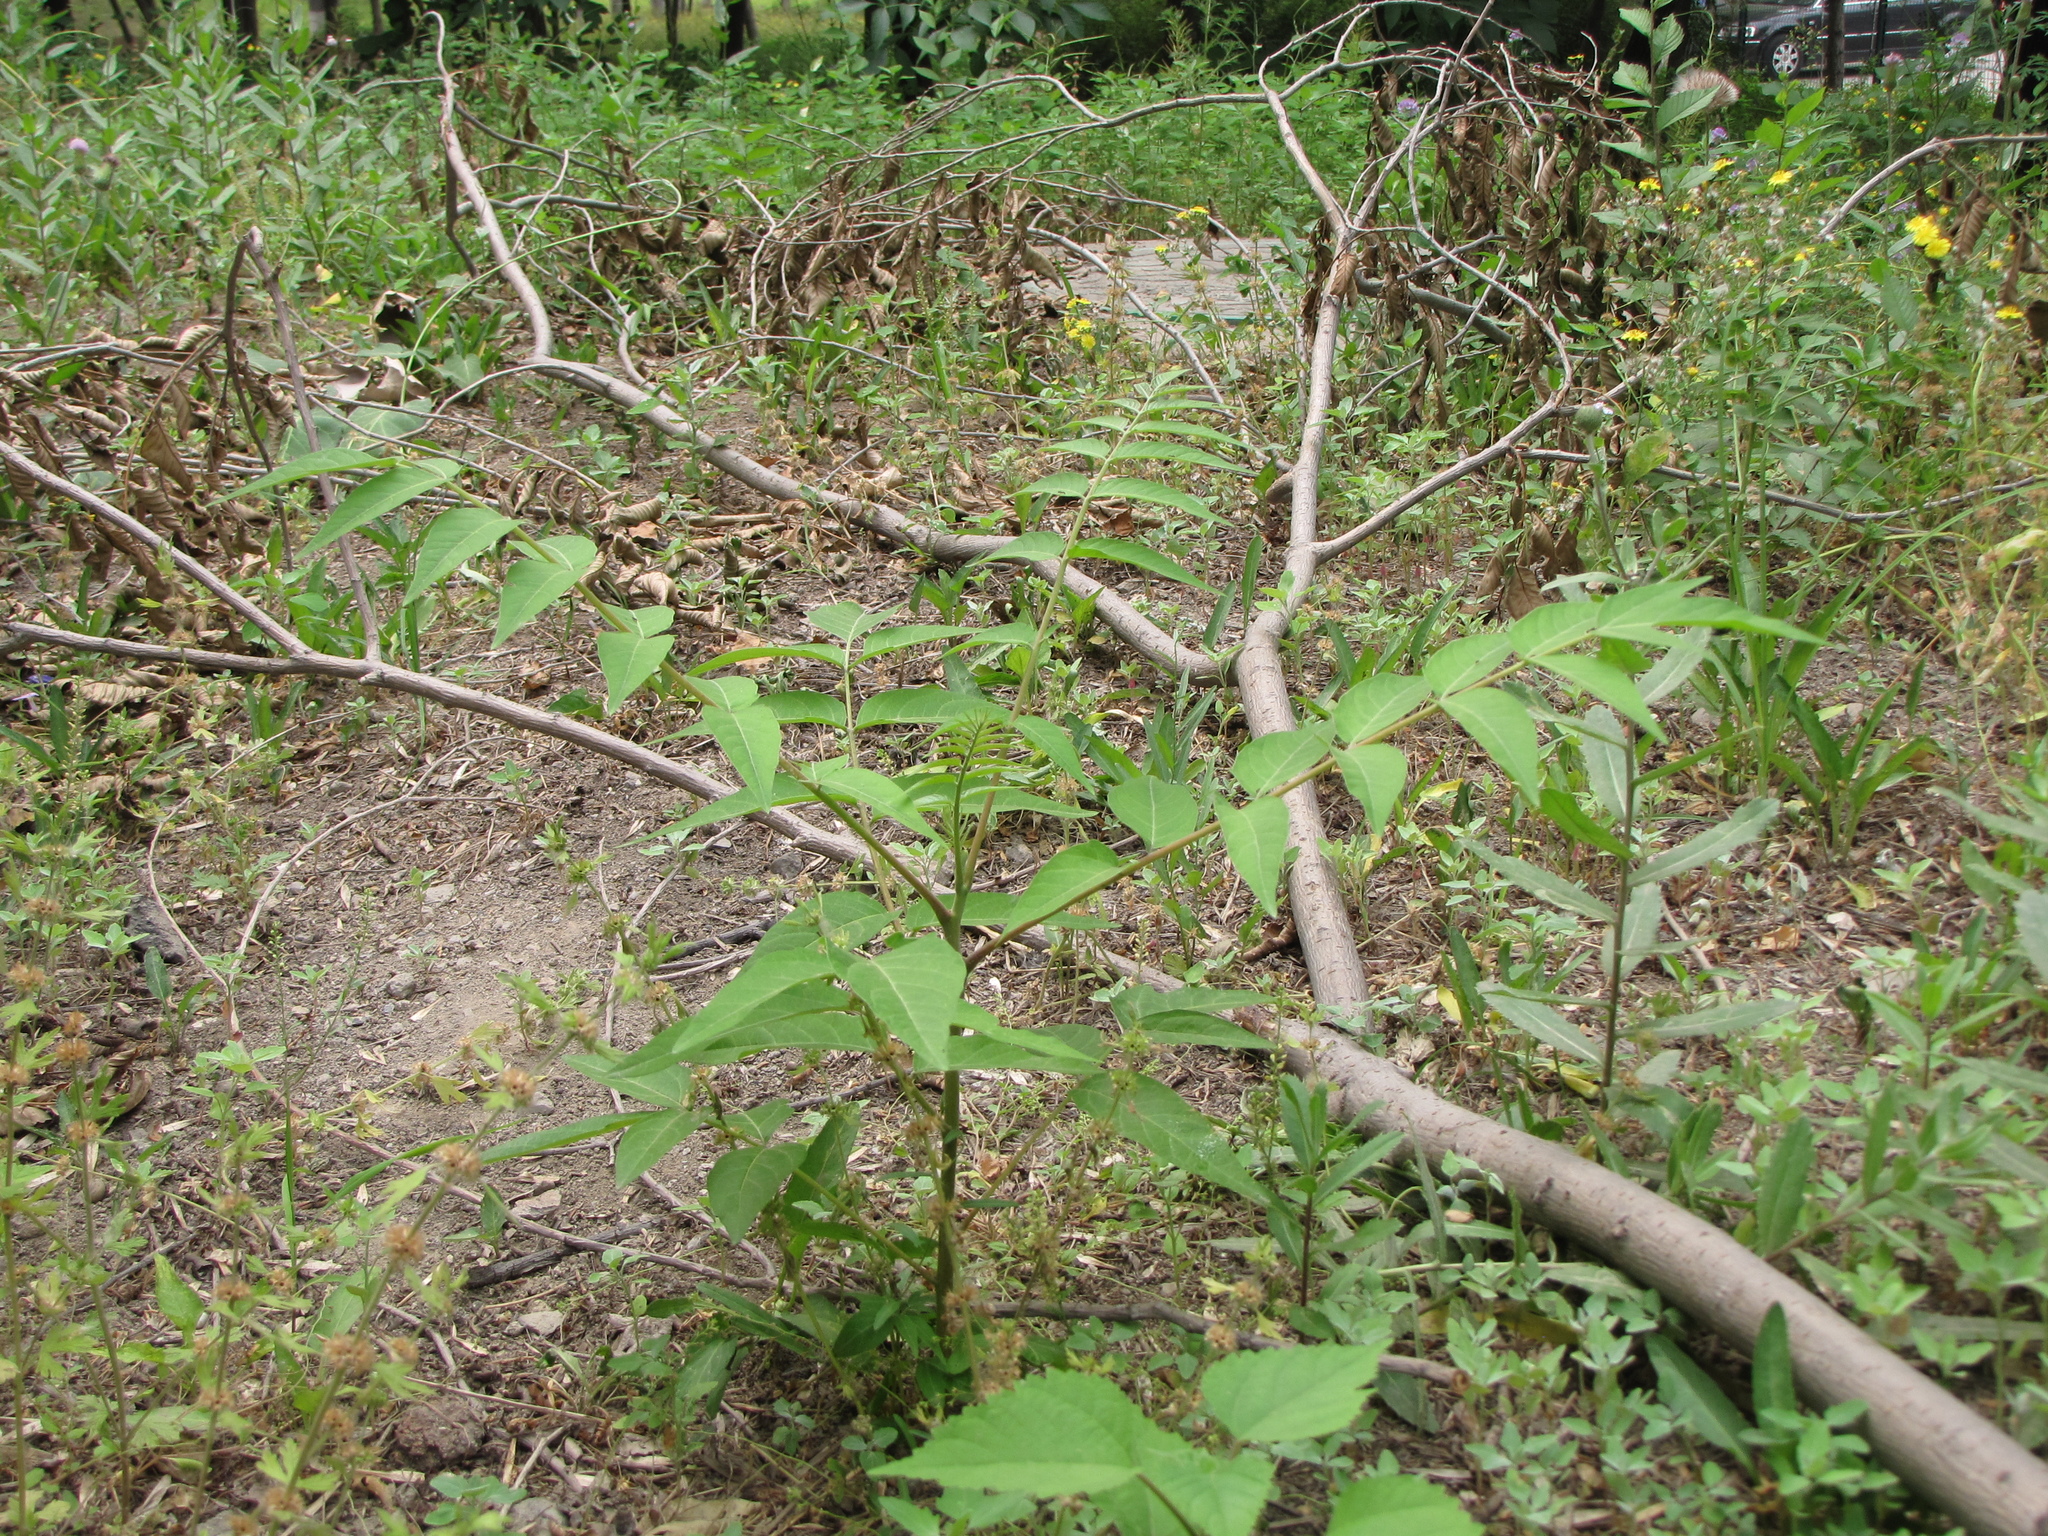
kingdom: Plantae
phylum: Tracheophyta
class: Magnoliopsida
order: Sapindales
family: Simaroubaceae
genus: Ailanthus
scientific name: Ailanthus altissima
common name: Tree-of-heaven
